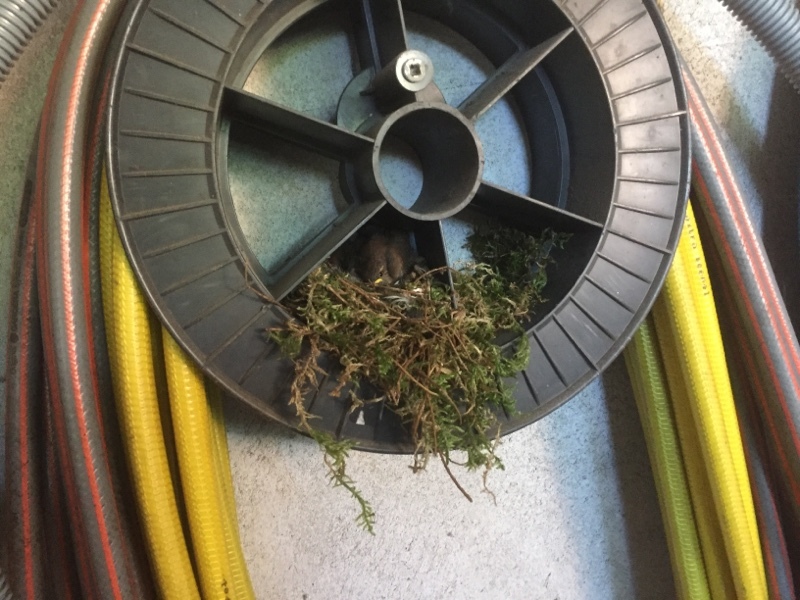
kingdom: Animalia
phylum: Chordata
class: Aves
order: Passeriformes
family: Troglodytidae
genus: Troglodytes
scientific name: Troglodytes troglodytes
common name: Eurasian wren
